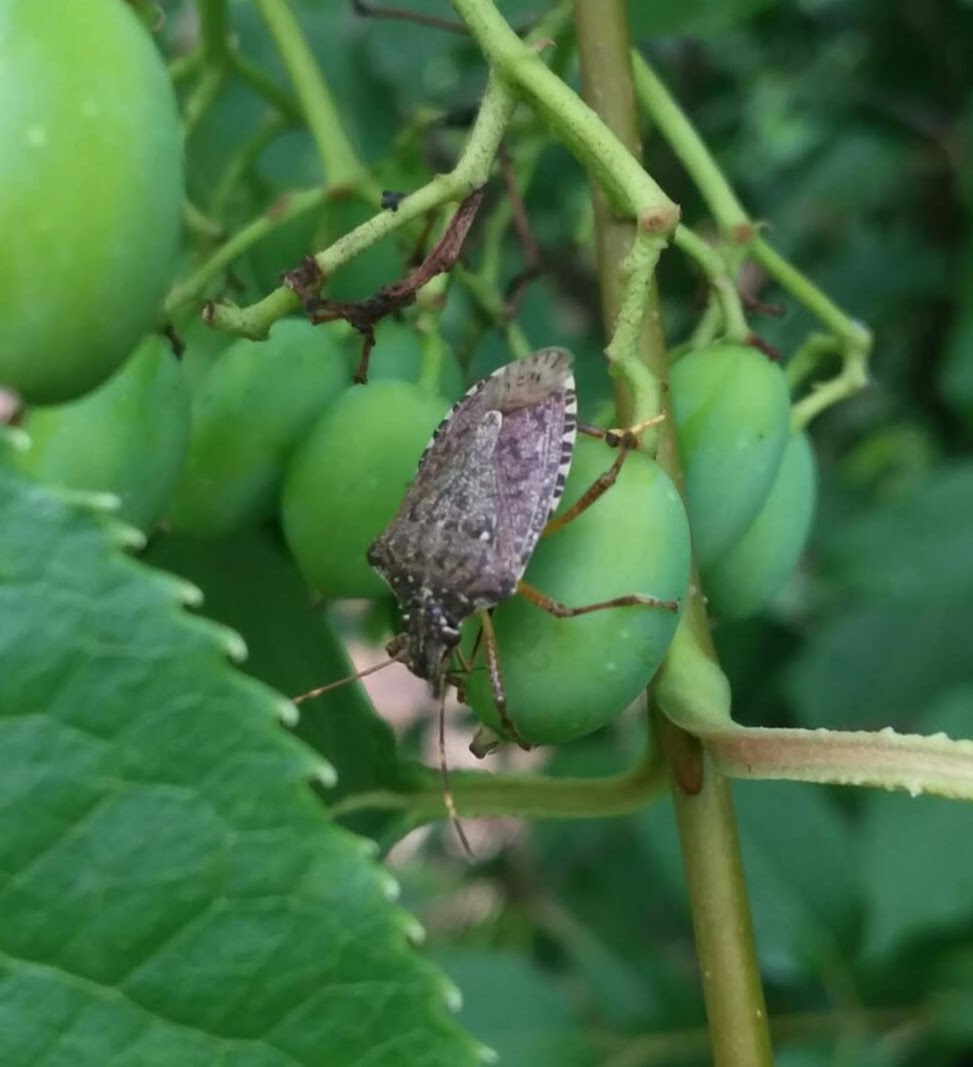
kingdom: Animalia
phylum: Arthropoda
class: Insecta
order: Hemiptera
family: Pentatomidae
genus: Halyomorpha
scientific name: Halyomorpha halys
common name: Brown marmorated stink bug
